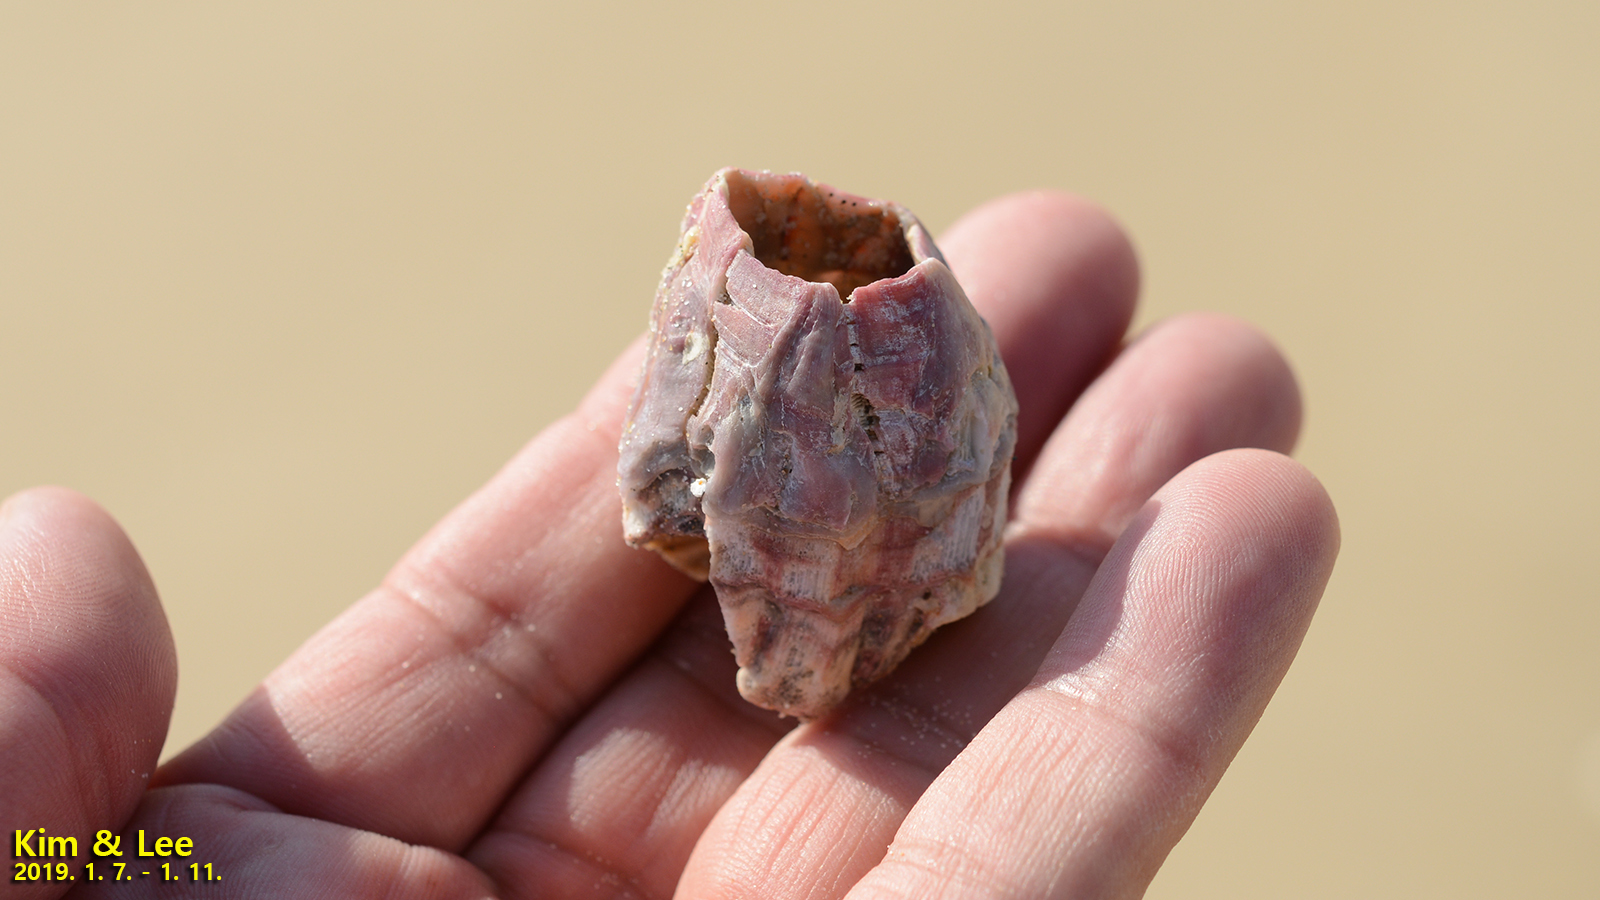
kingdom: Animalia
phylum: Arthropoda
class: Maxillopoda
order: Sessilia
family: Balanidae
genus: Megabalanus
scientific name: Megabalanus rosa
